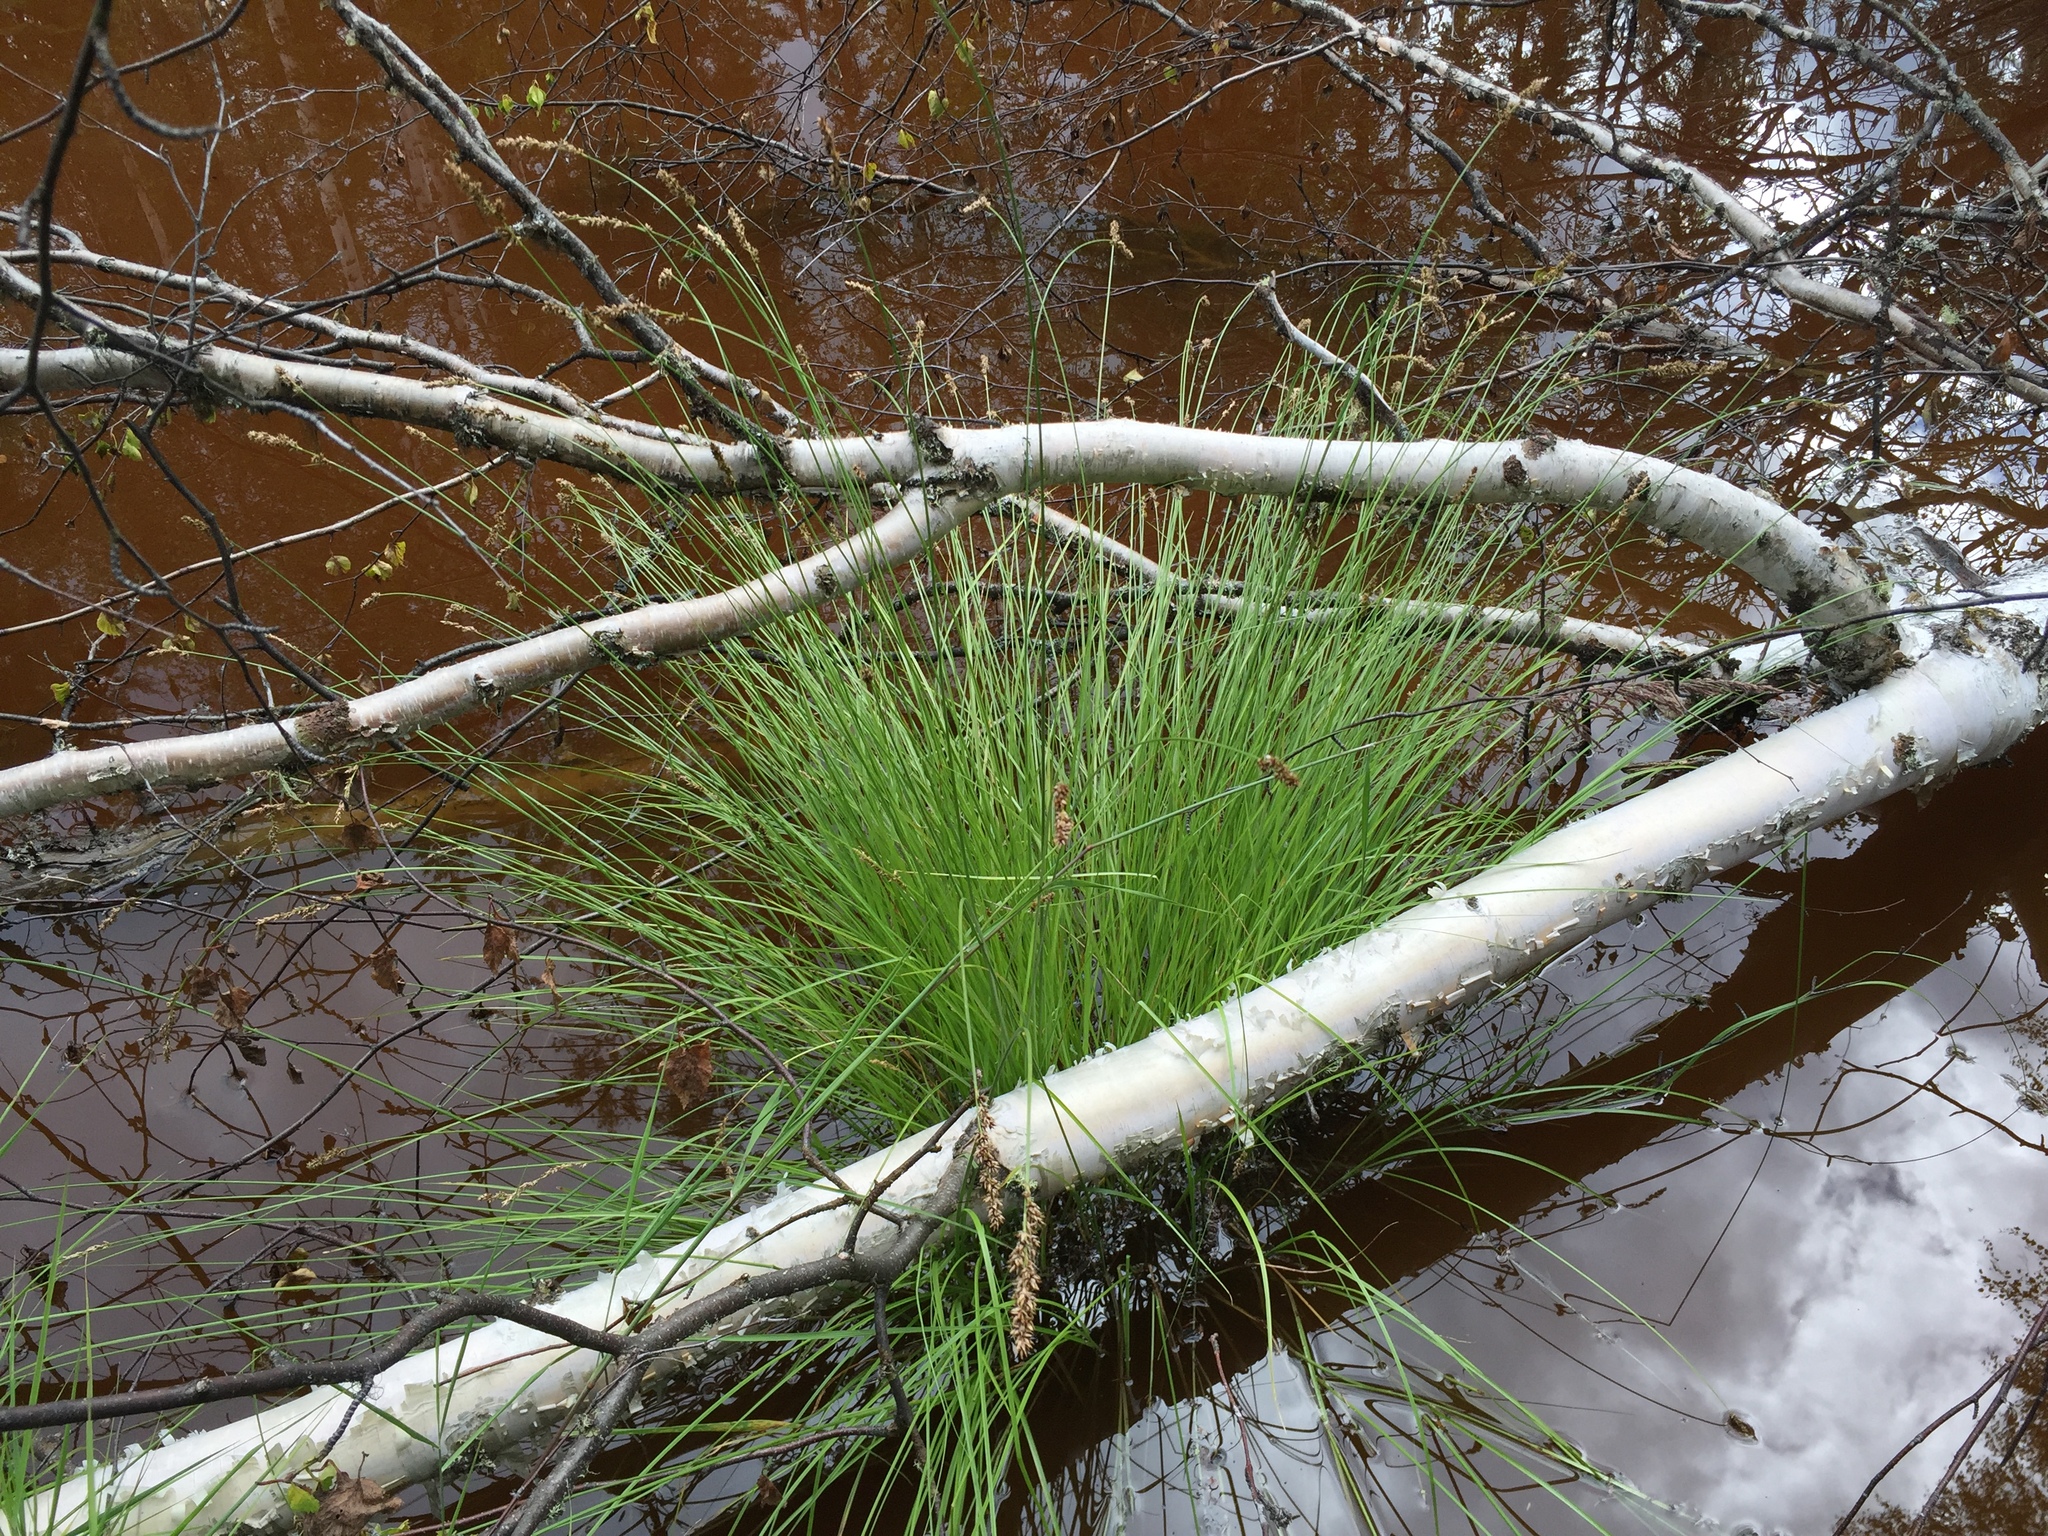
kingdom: Plantae
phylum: Tracheophyta
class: Liliopsida
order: Poales
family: Cyperaceae
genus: Carex
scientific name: Carex diandra
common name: Lesser tussock-sedge
